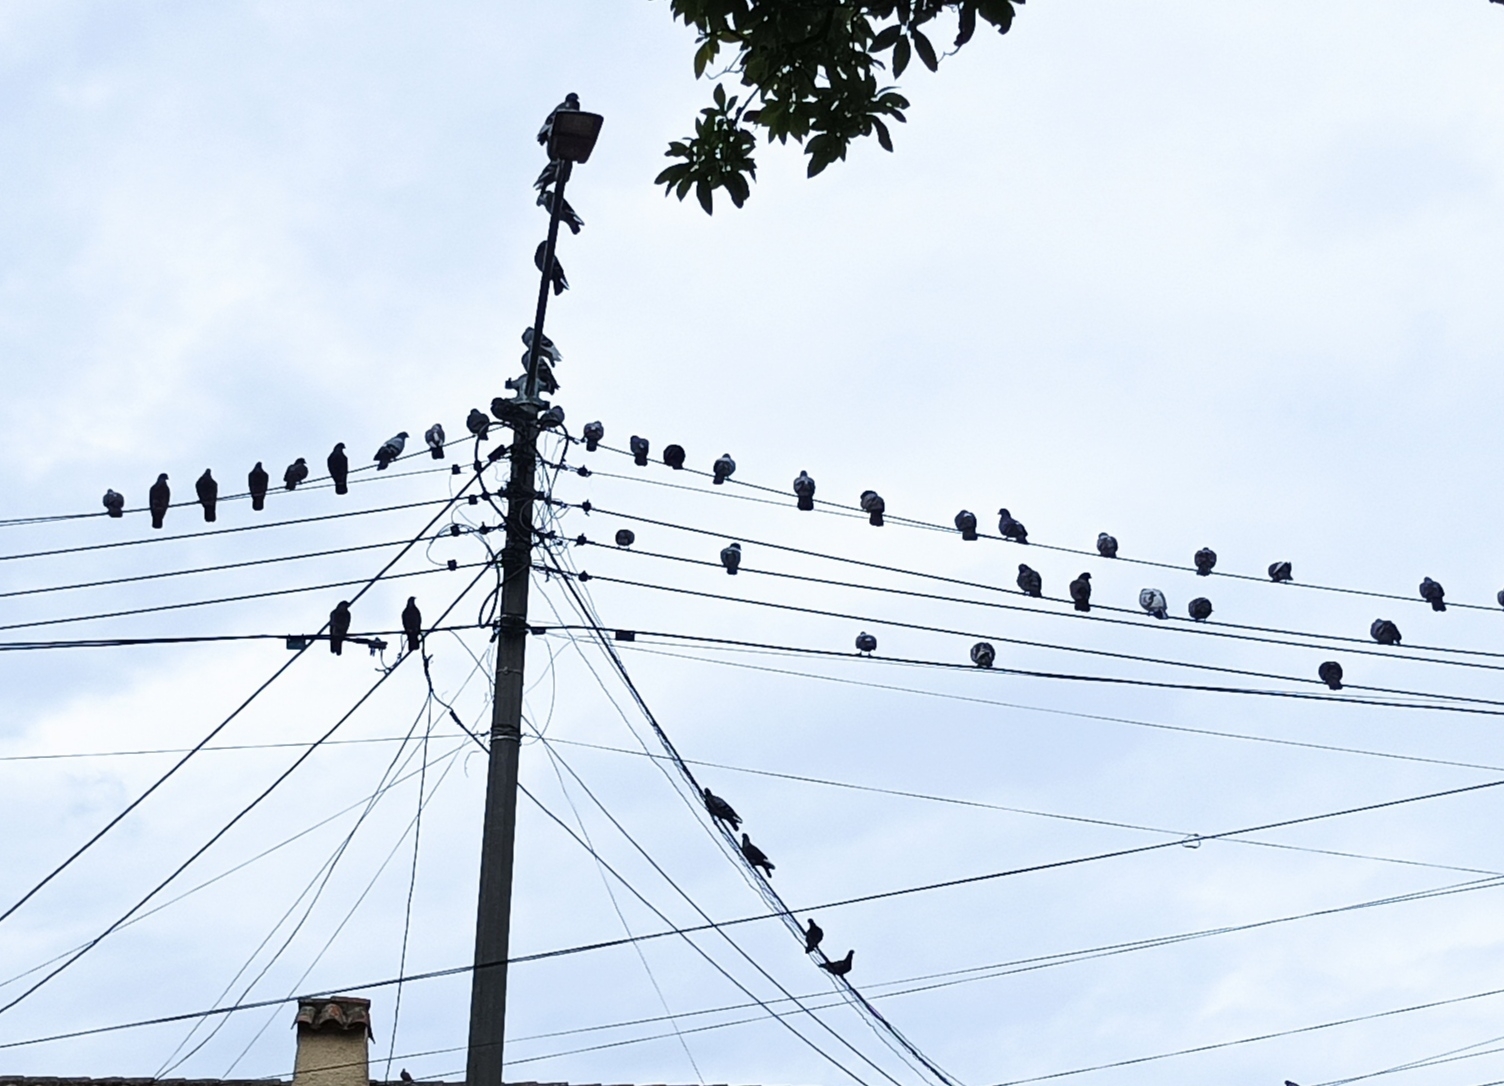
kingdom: Animalia
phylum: Chordata
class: Aves
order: Columbiformes
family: Columbidae
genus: Columba
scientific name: Columba livia
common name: Rock pigeon
